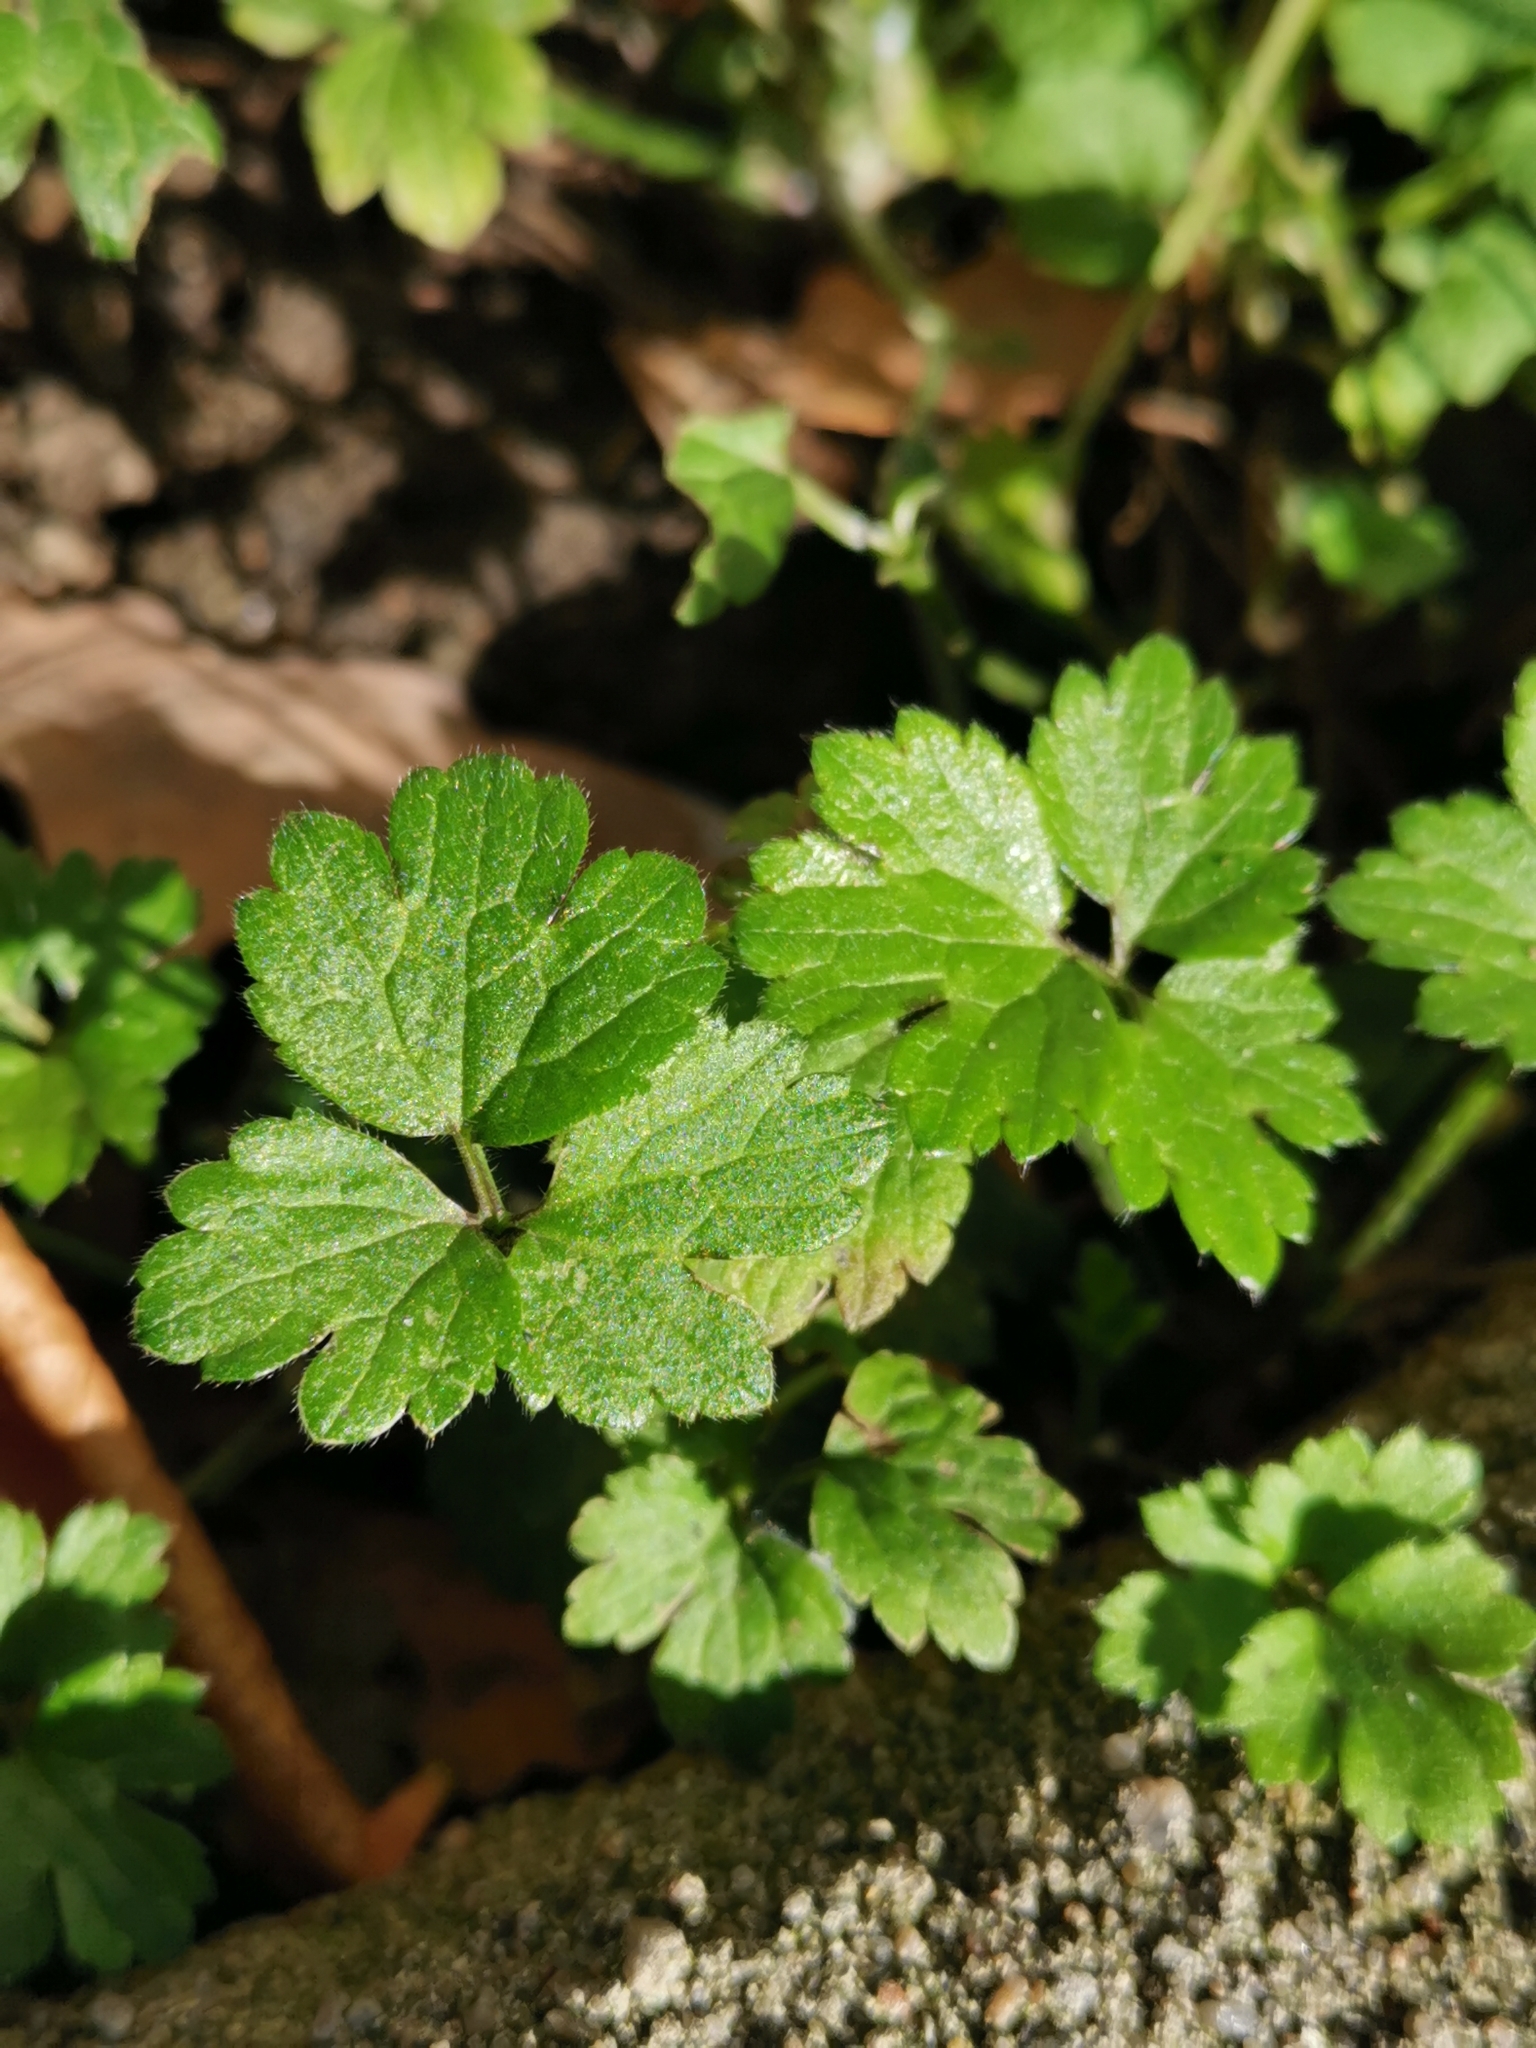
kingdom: Plantae
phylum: Tracheophyta
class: Magnoliopsida
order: Ranunculales
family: Ranunculaceae
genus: Ranunculus
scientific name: Ranunculus repens
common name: Creeping buttercup
